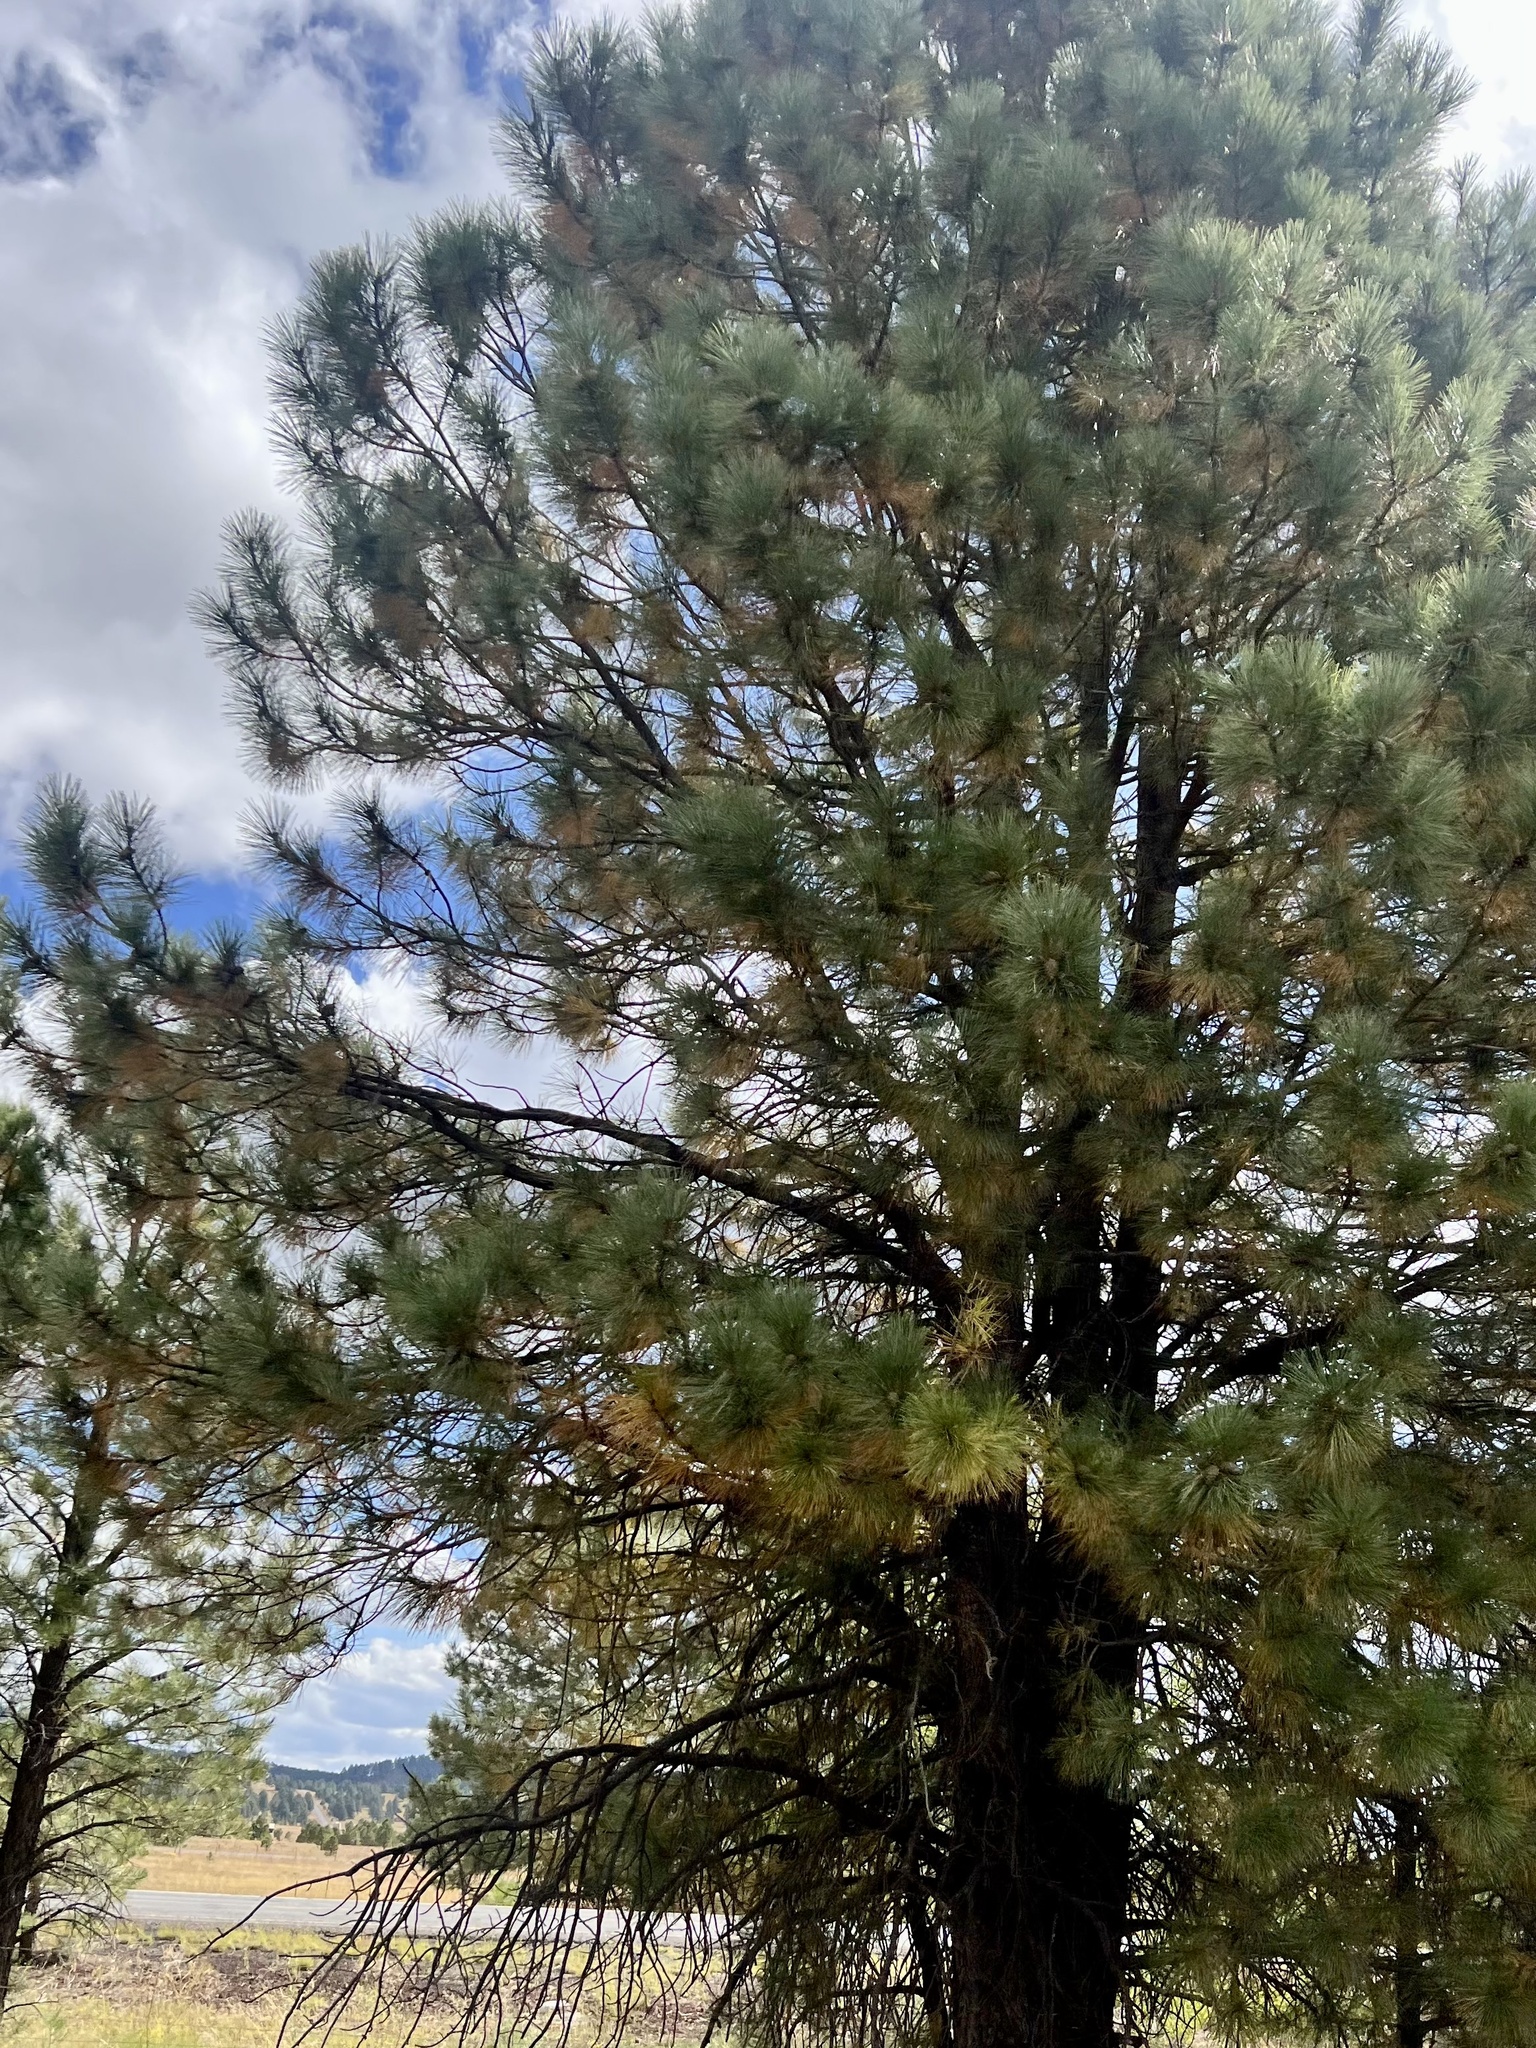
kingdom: Plantae
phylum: Tracheophyta
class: Pinopsida
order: Pinales
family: Pinaceae
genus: Pinus
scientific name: Pinus ponderosa
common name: Western yellow-pine
